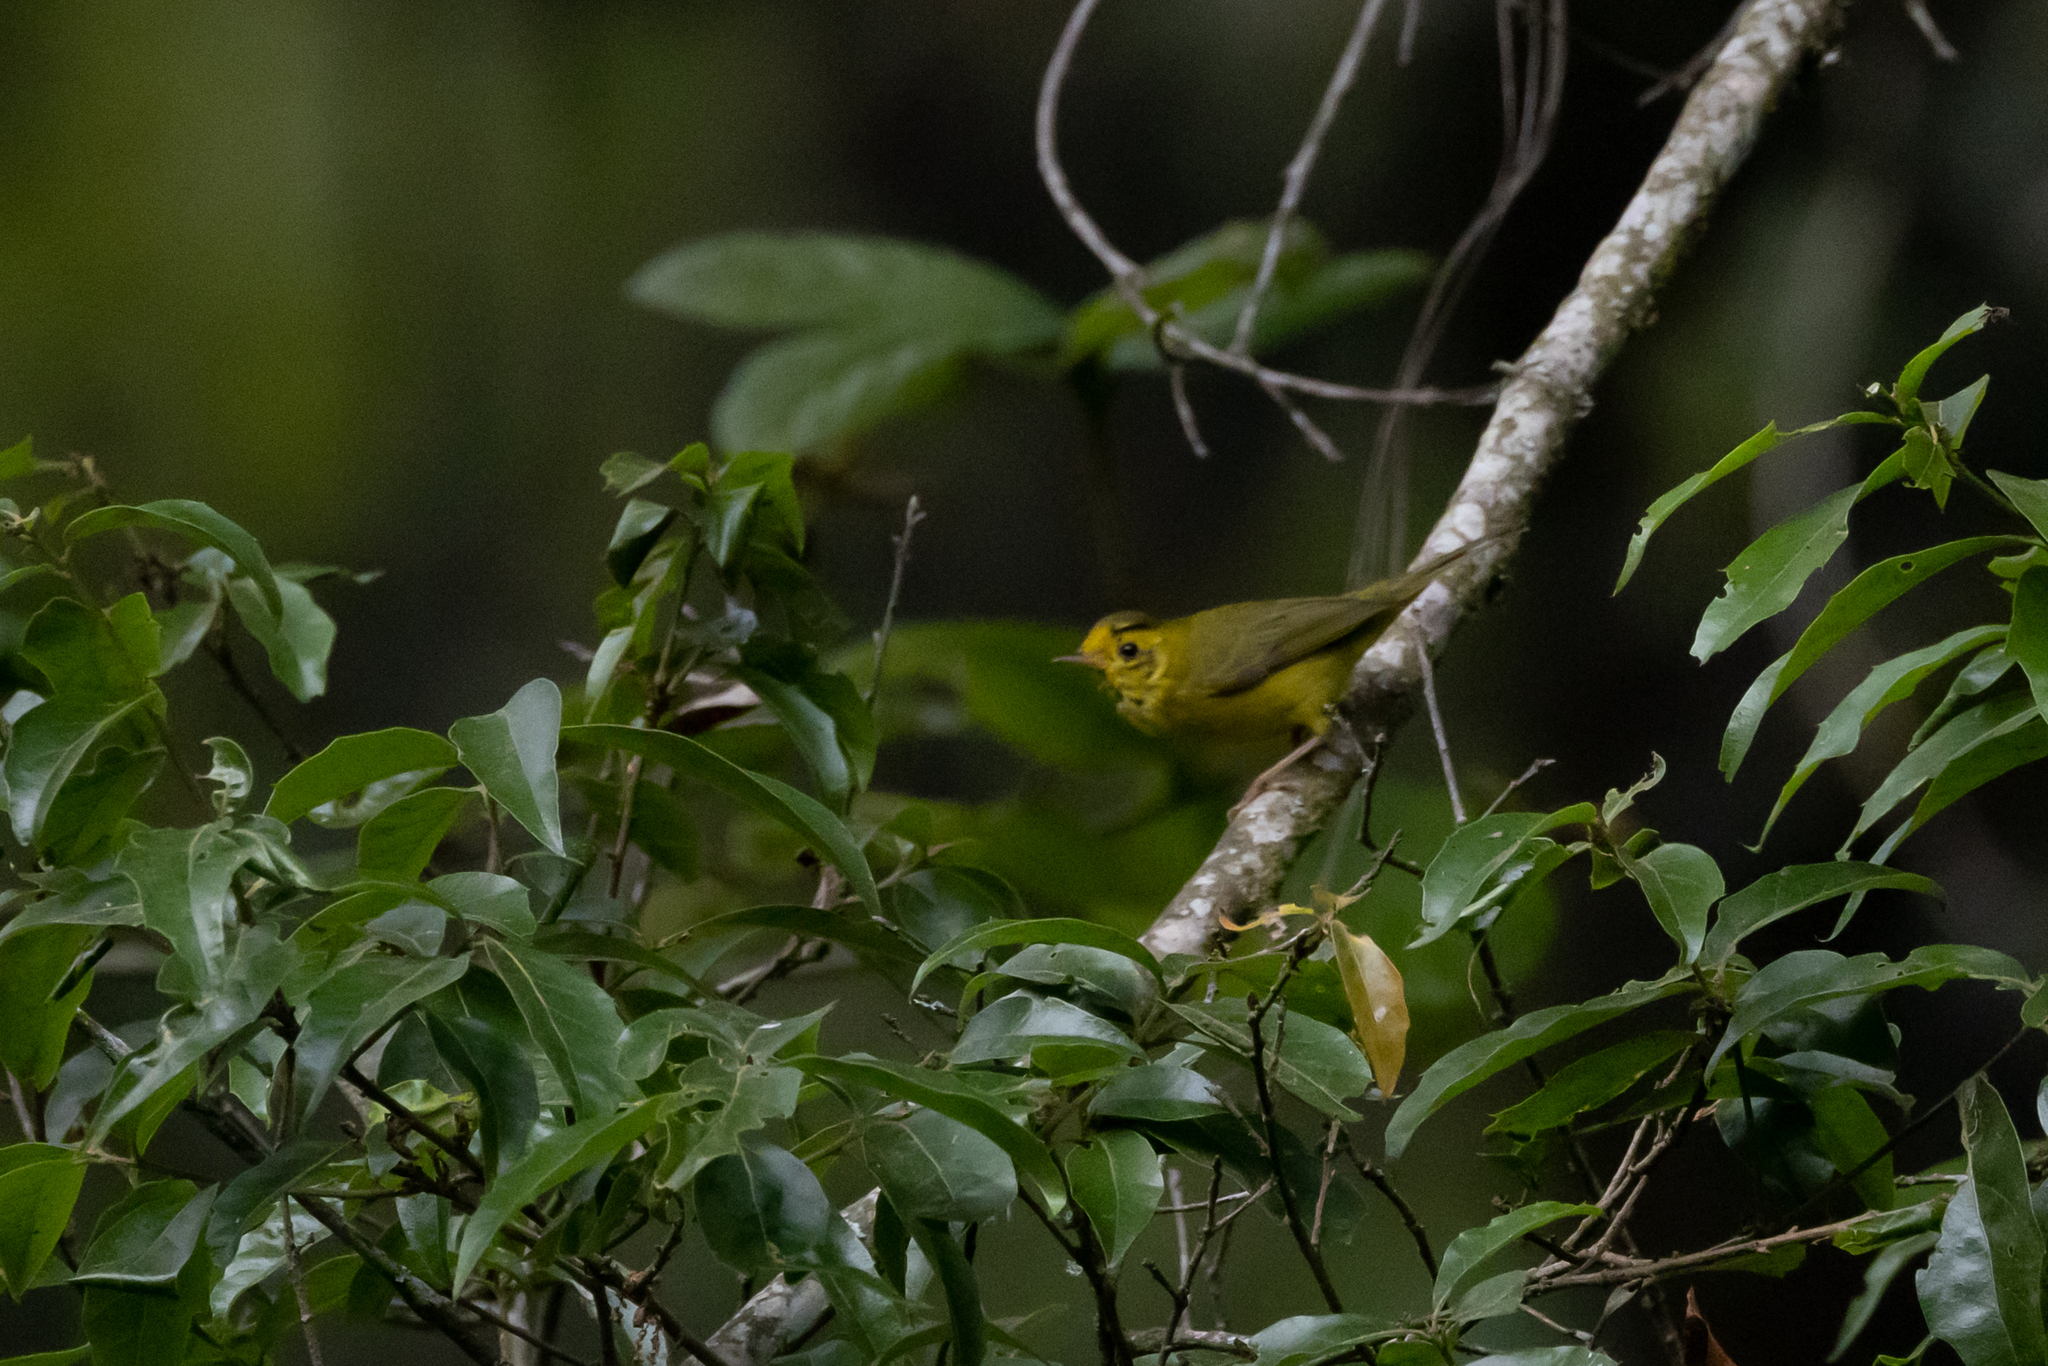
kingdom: Animalia
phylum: Chordata
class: Aves
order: Passeriformes
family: Parulidae
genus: Cardellina
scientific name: Cardellina pusilla
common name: Wilson's warbler
